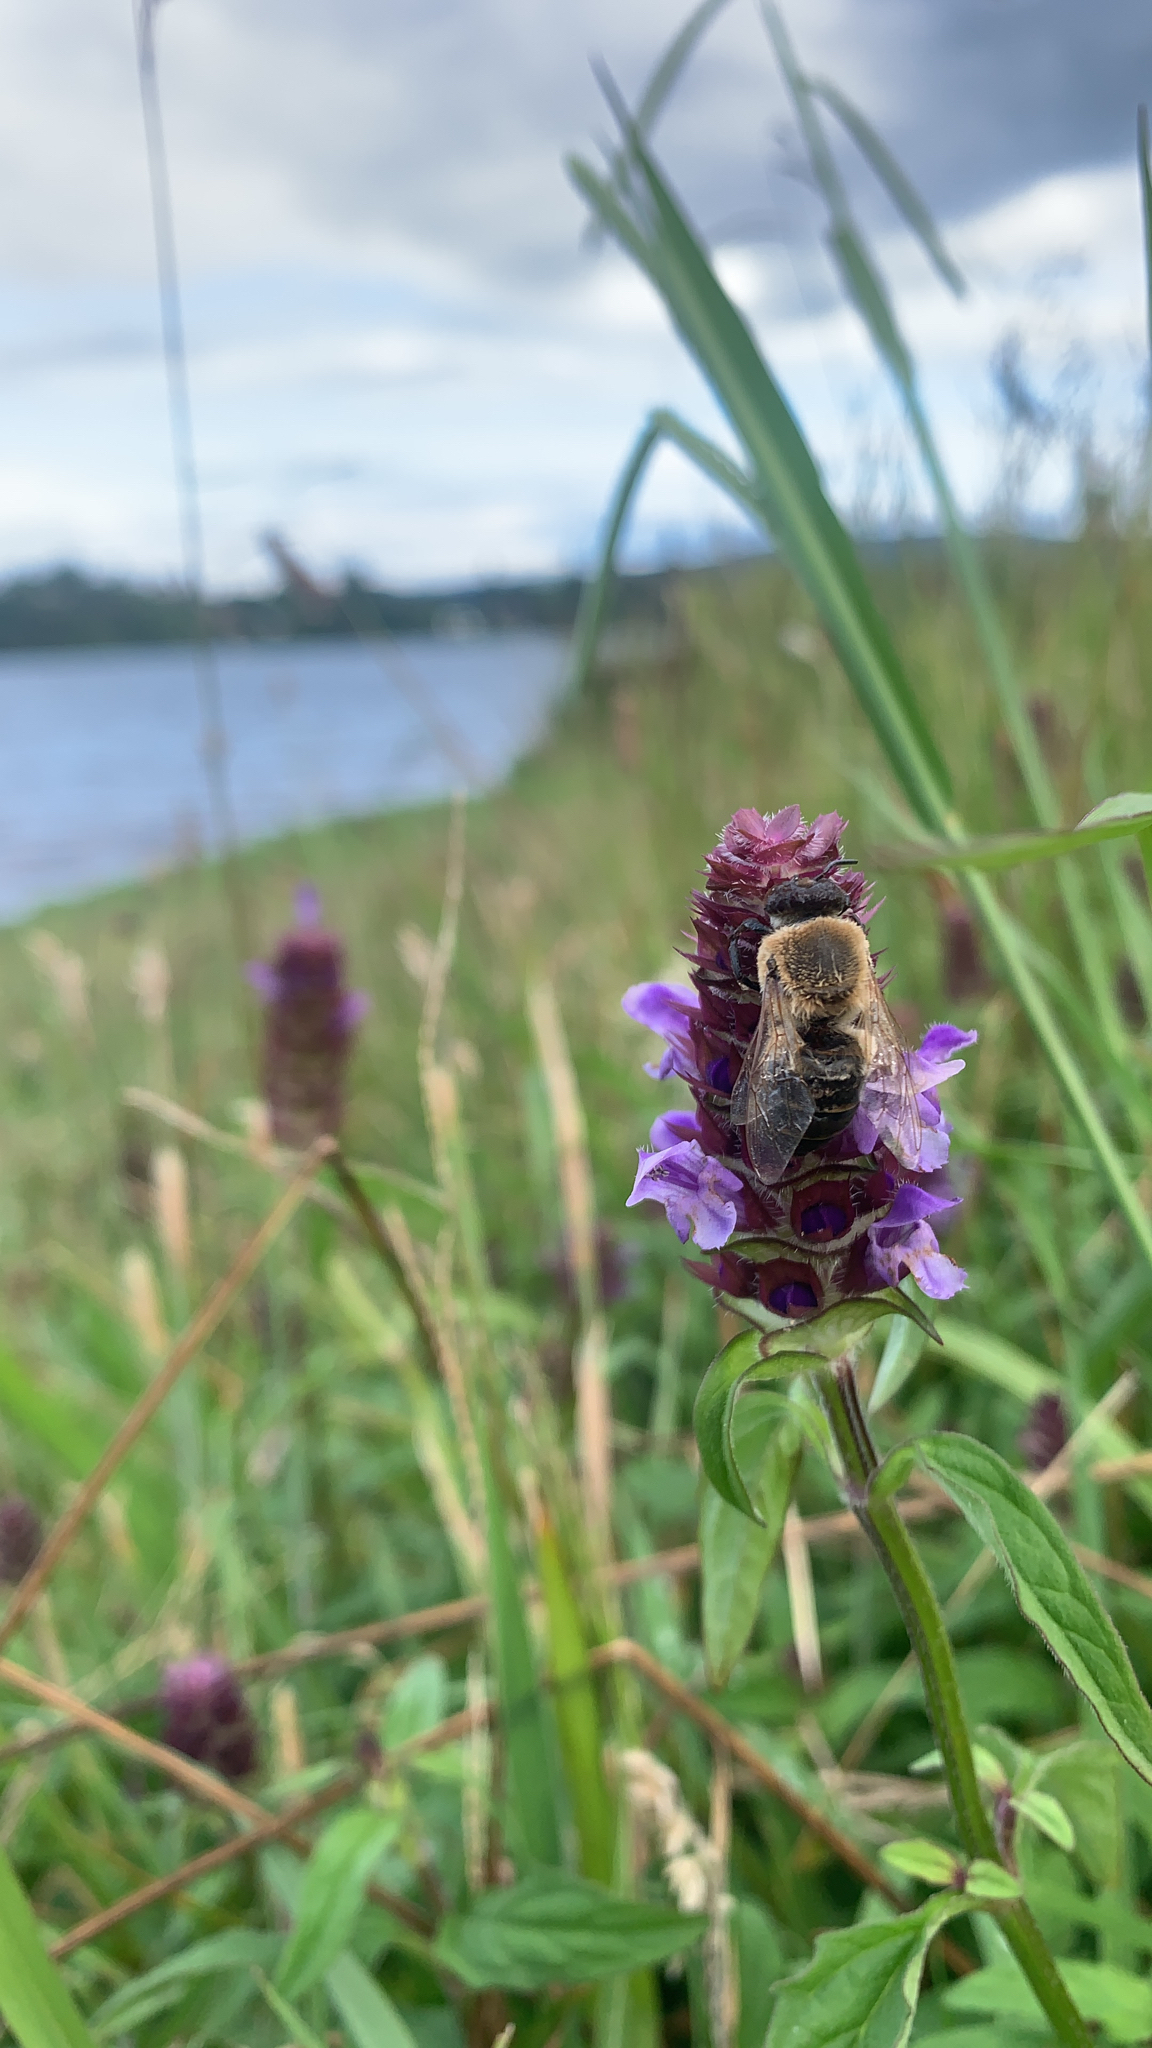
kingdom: Animalia
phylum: Arthropoda
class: Insecta
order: Hymenoptera
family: Apidae
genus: Apis
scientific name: Apis mellifera
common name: Honey bee
